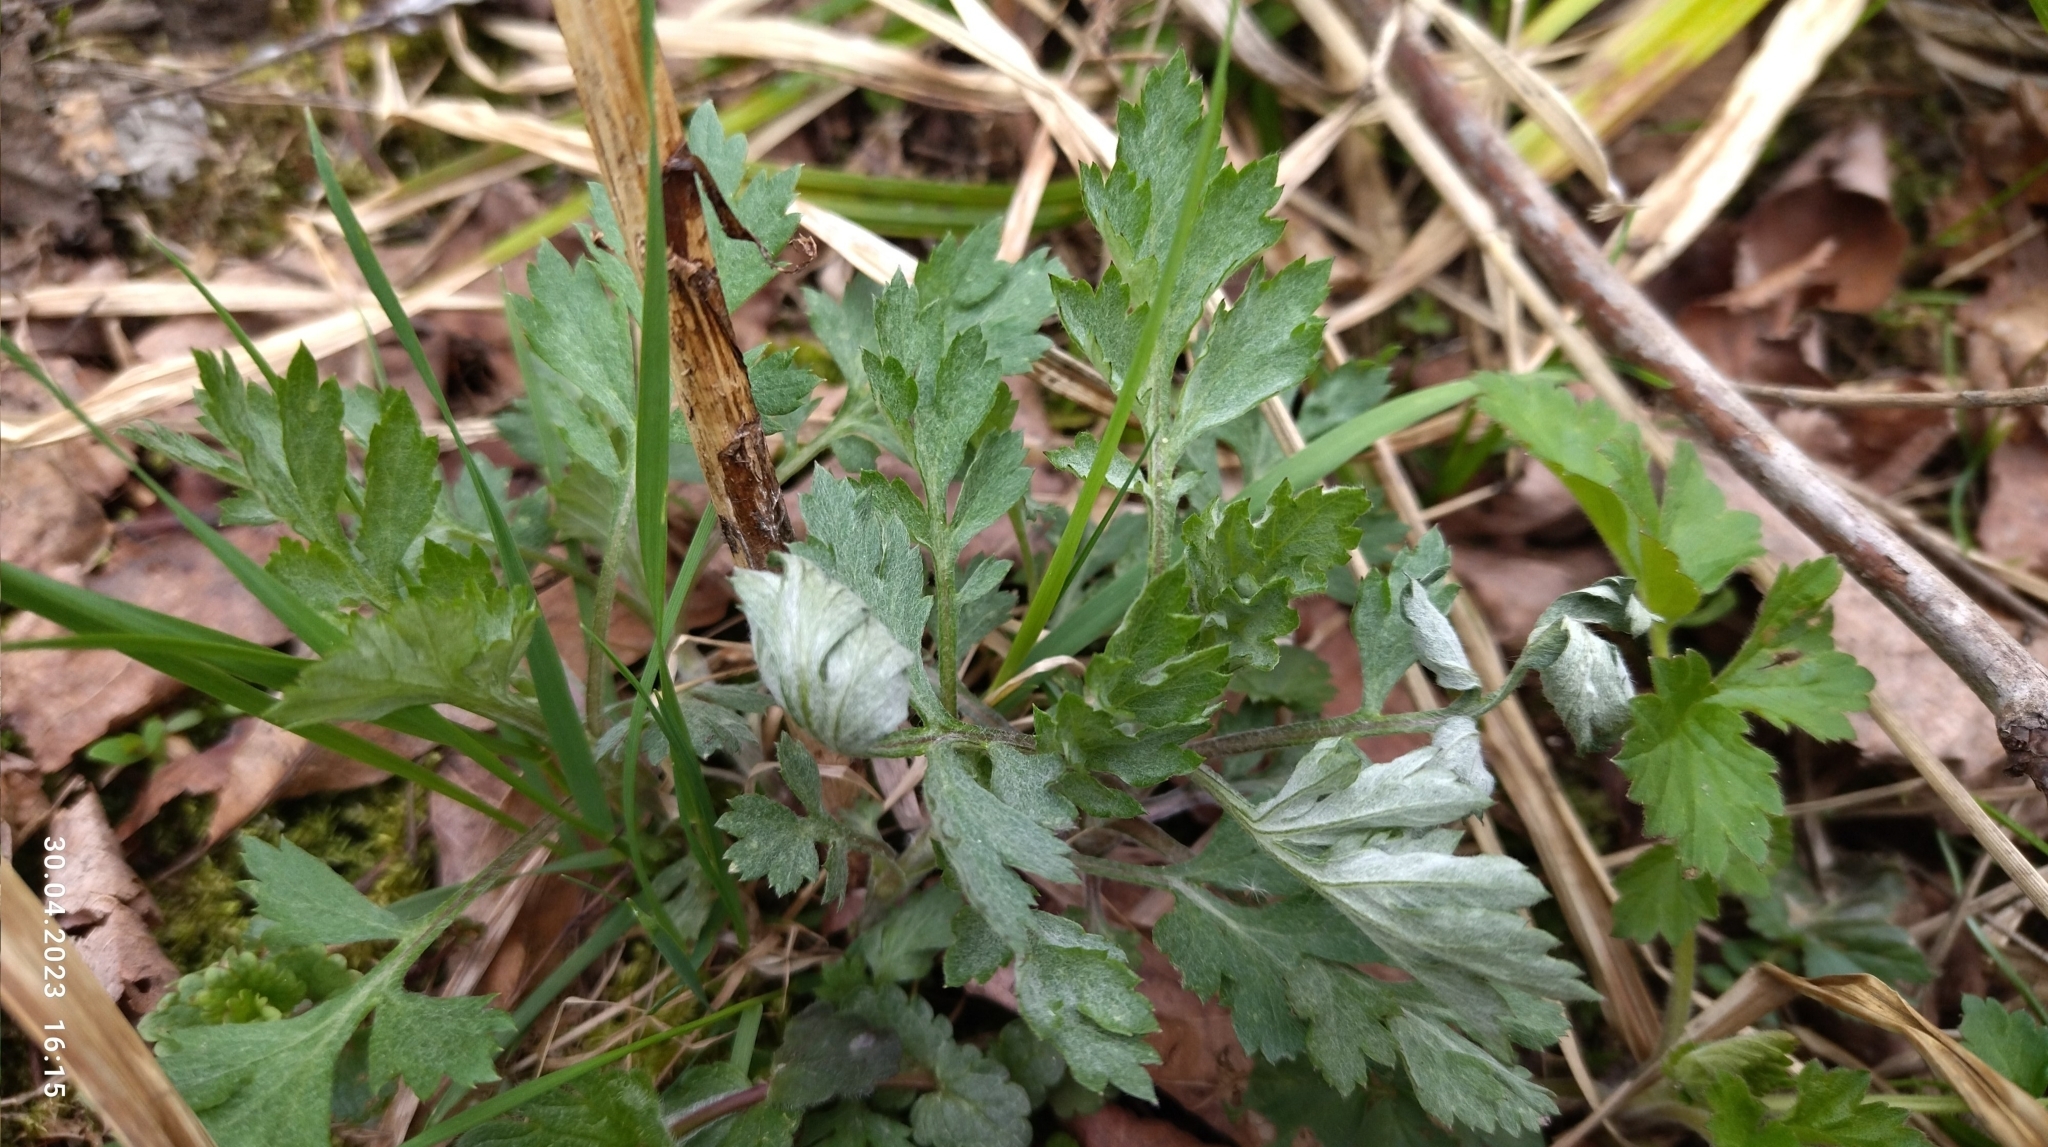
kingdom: Plantae
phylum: Tracheophyta
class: Magnoliopsida
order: Asterales
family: Asteraceae
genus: Artemisia
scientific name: Artemisia vulgaris
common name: Mugwort
